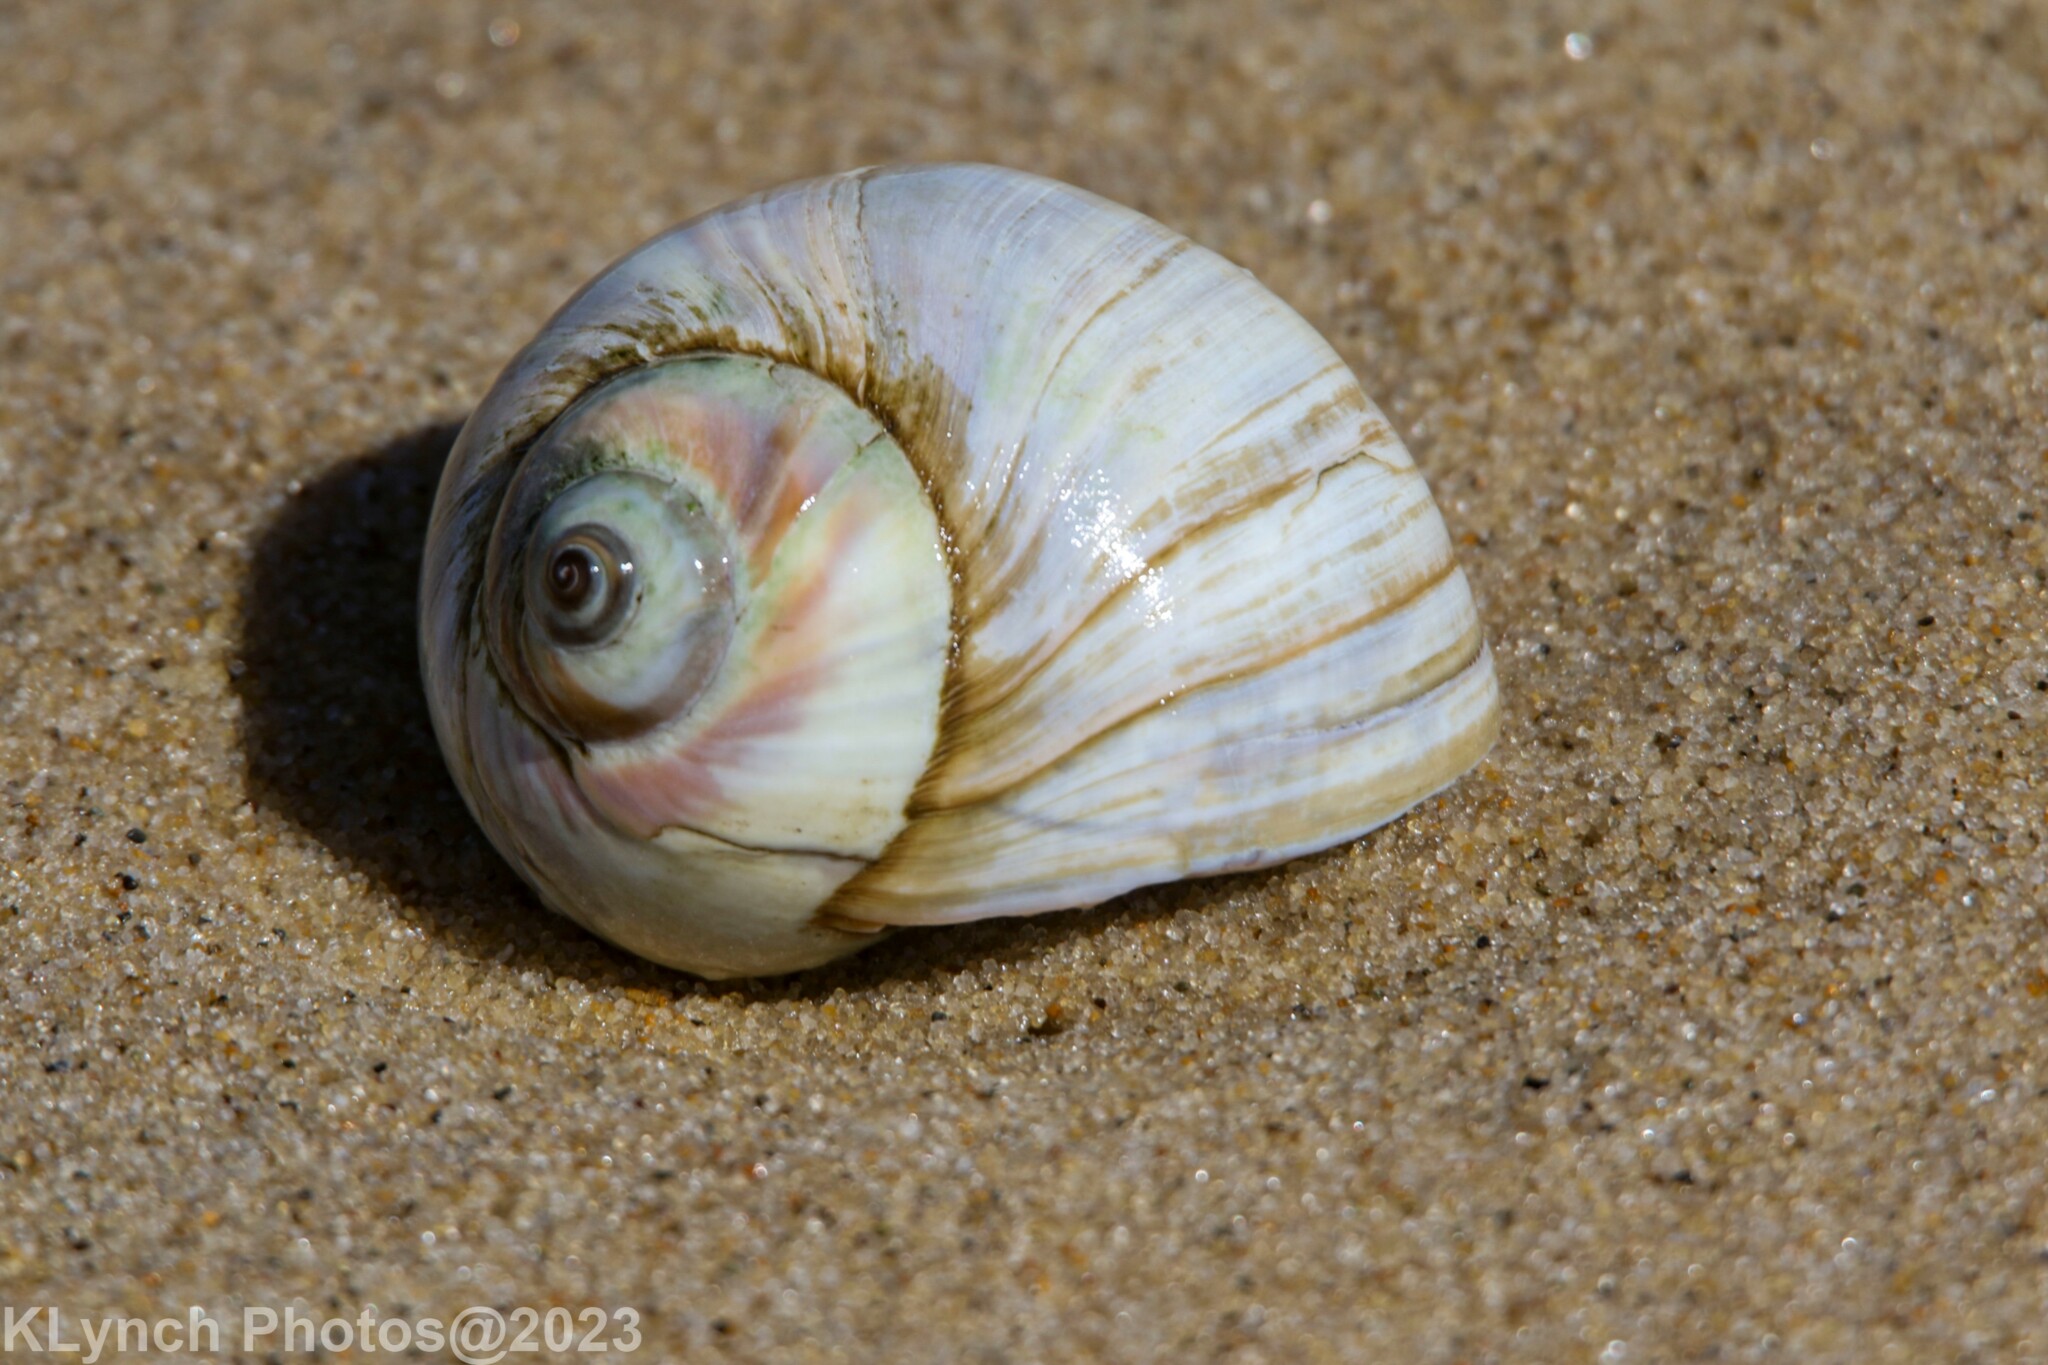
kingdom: Animalia
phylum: Mollusca
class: Gastropoda
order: Littorinimorpha
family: Naticidae
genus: Euspira
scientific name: Euspira heros
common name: Common northern moonsnail
